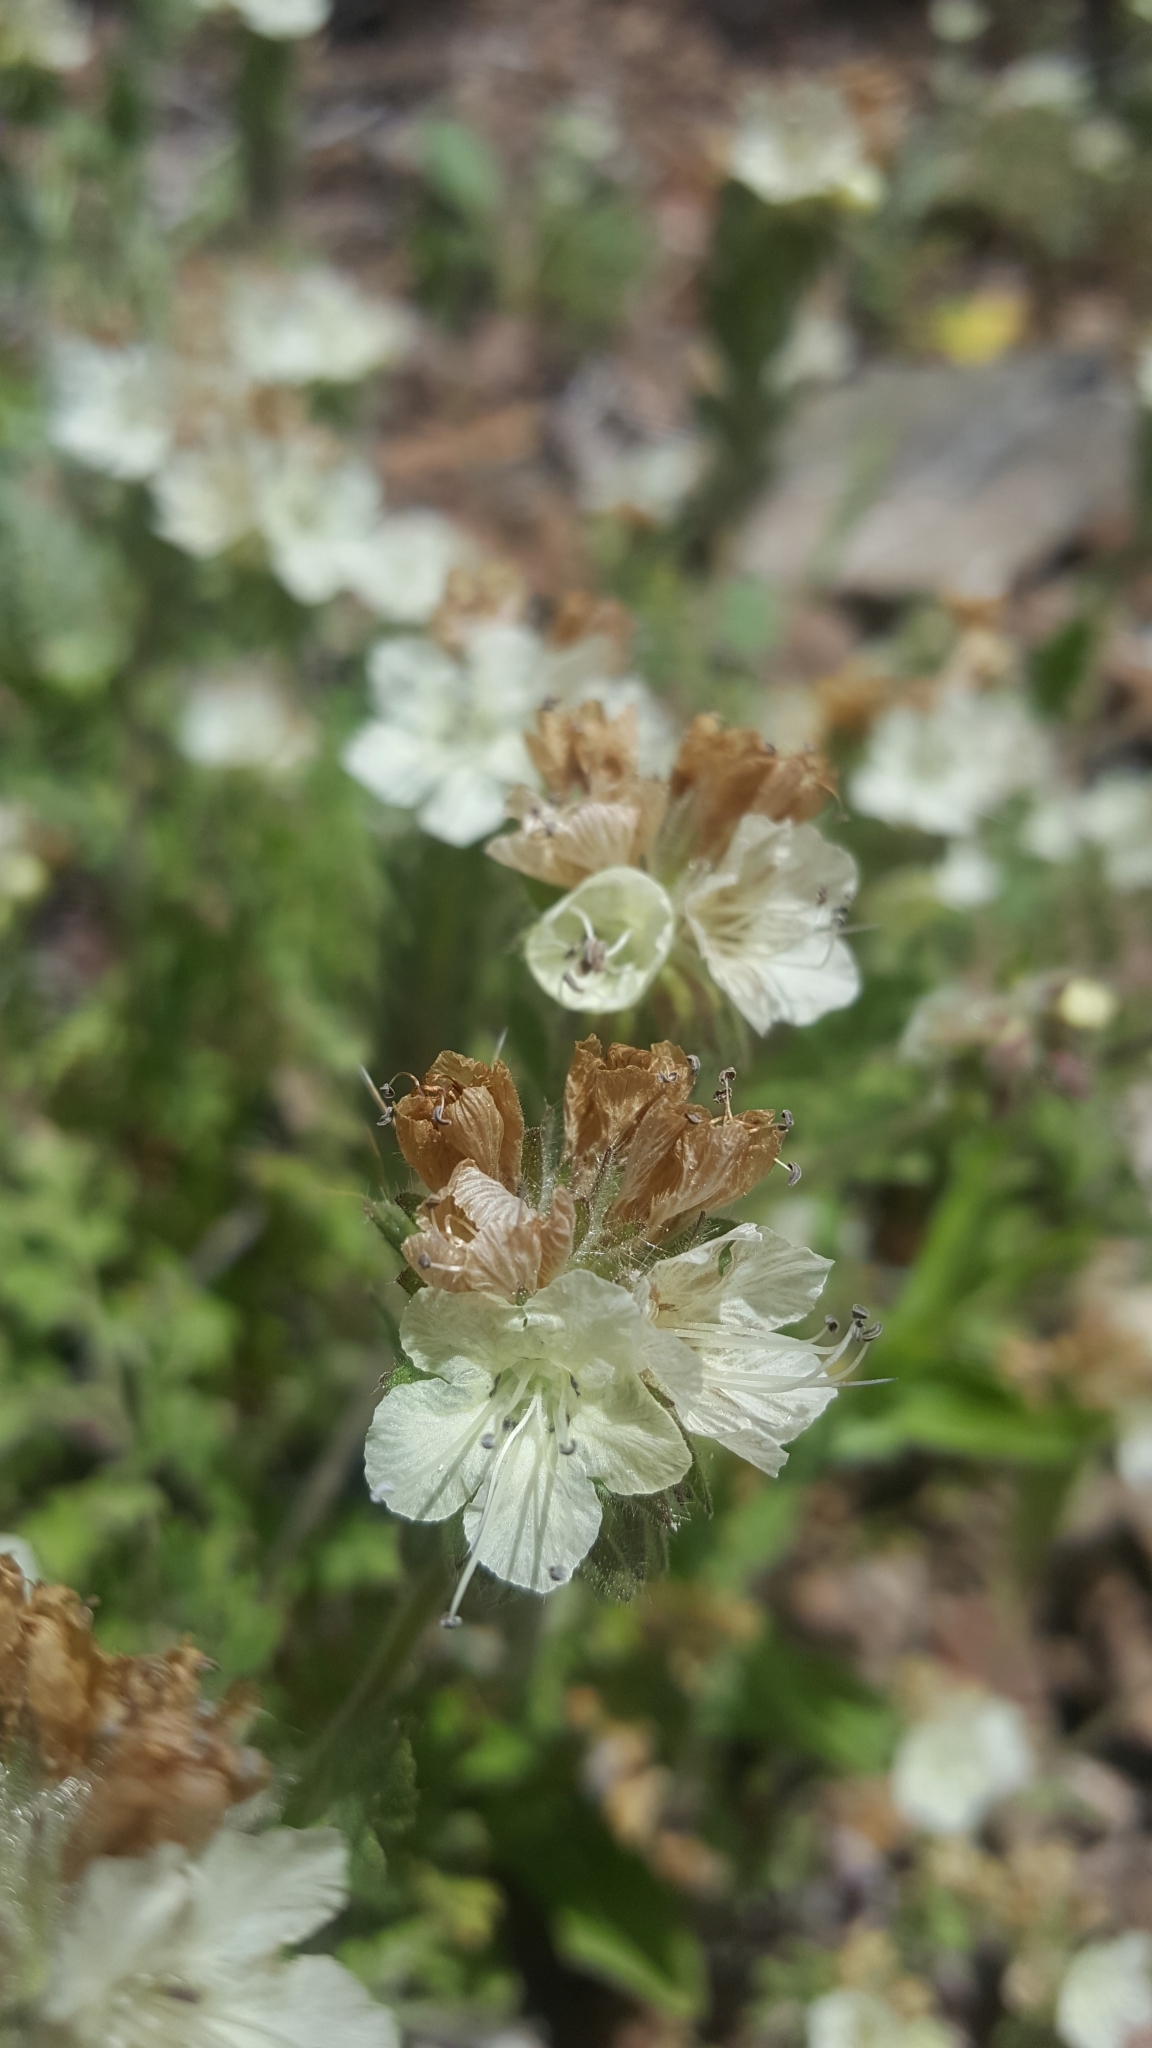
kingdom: Plantae
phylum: Tracheophyta
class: Magnoliopsida
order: Boraginales
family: Hydrophyllaceae
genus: Phacelia
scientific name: Phacelia distans
